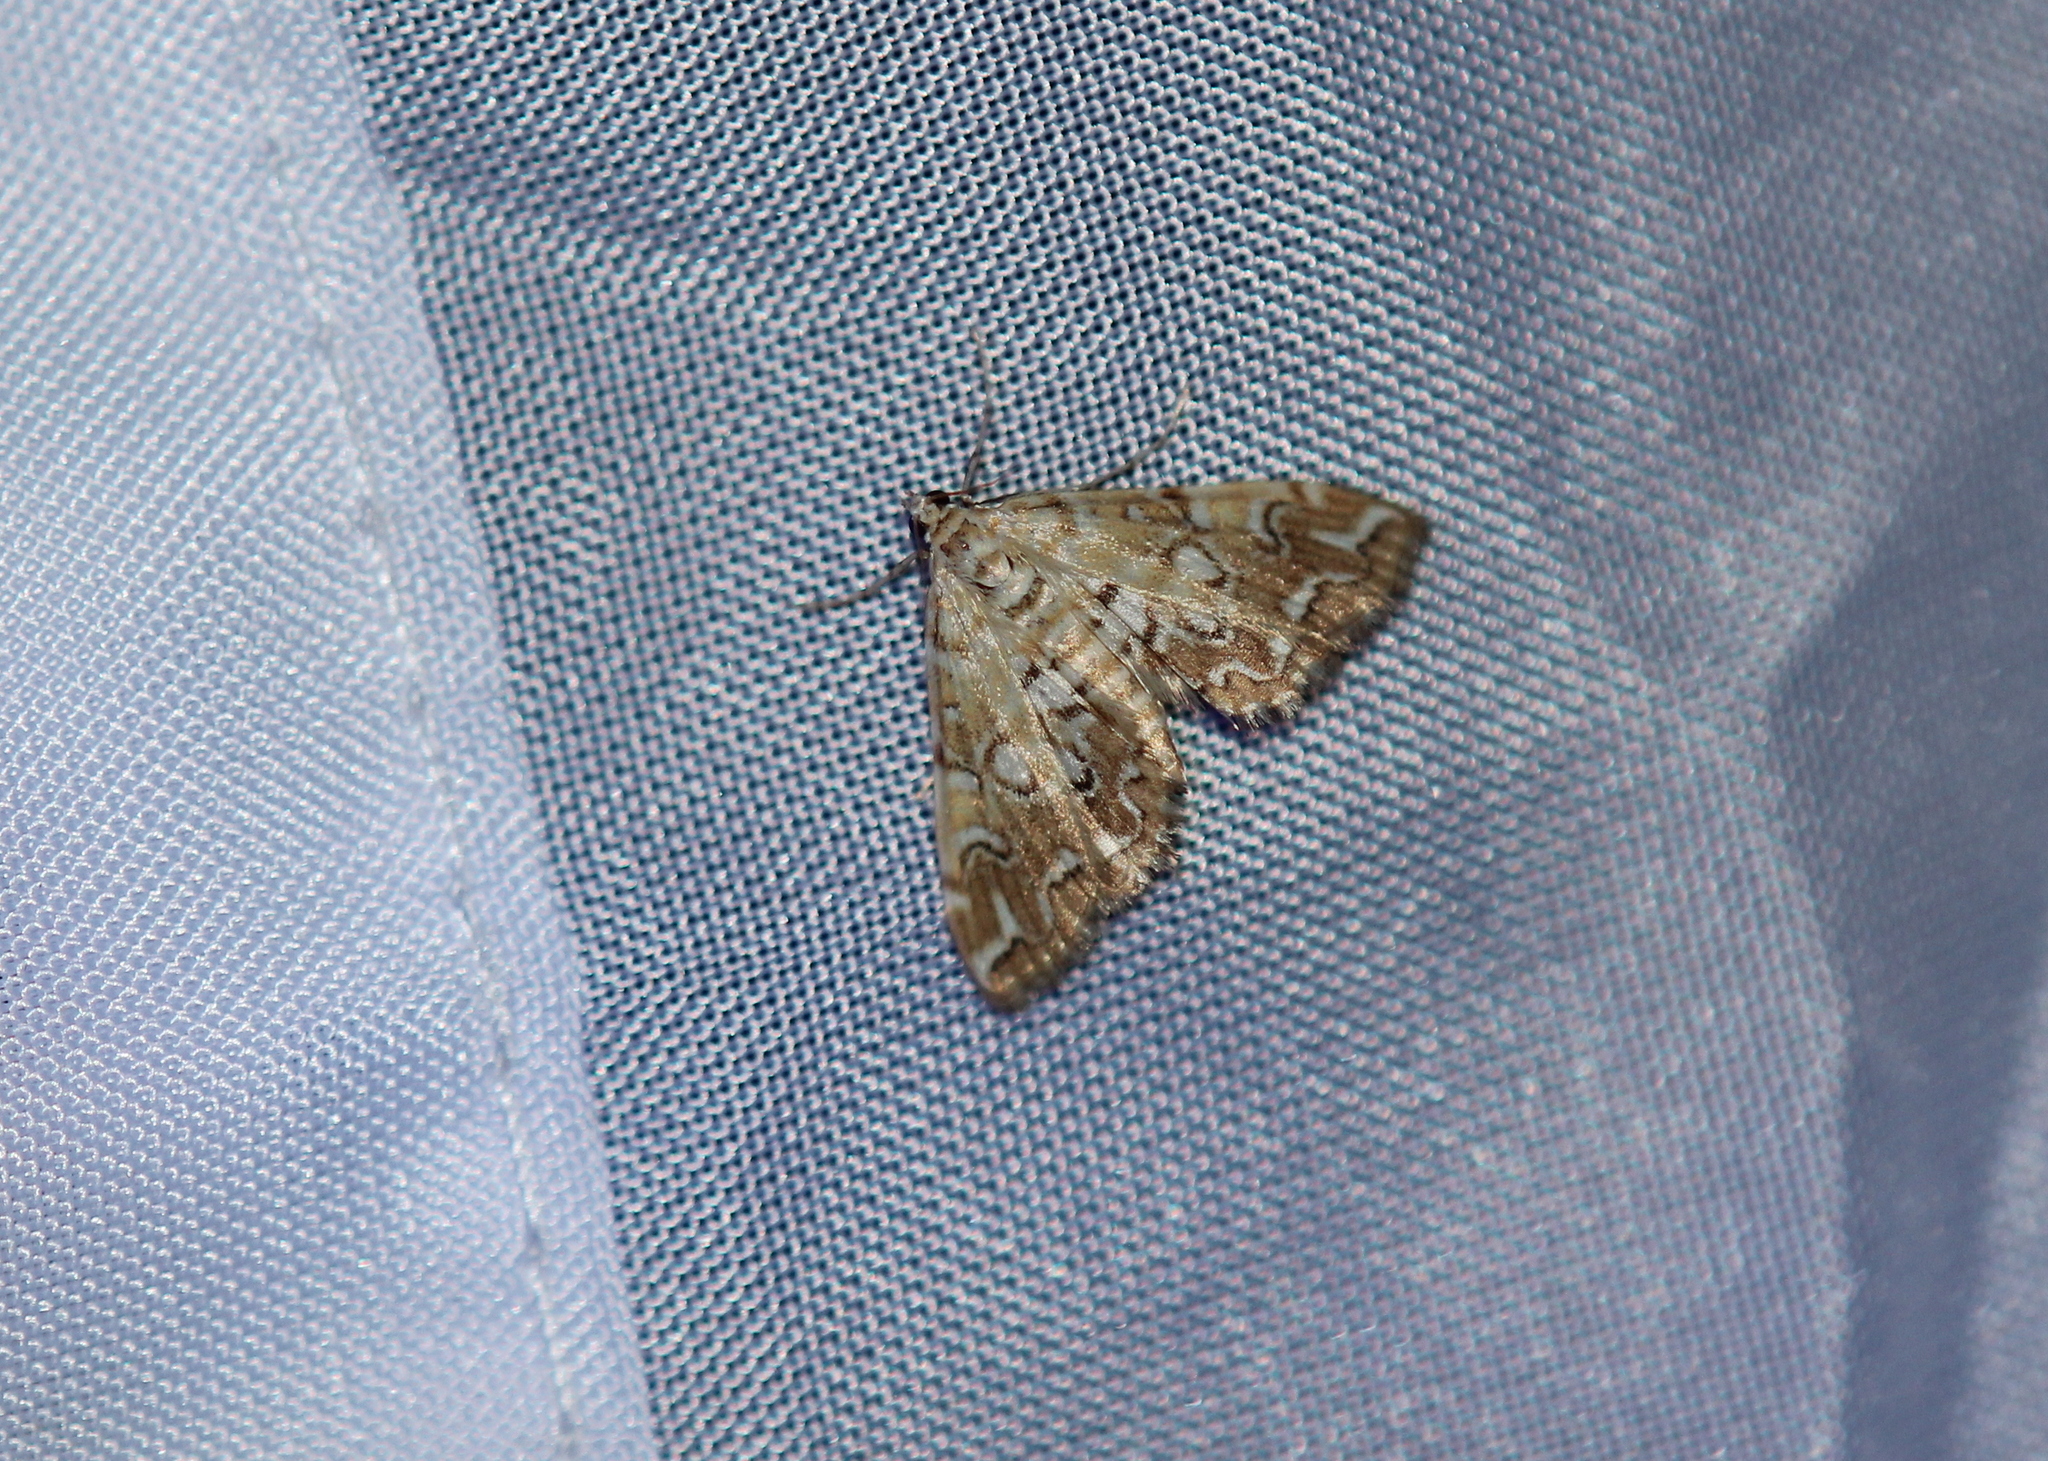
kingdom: Animalia
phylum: Arthropoda
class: Insecta
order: Lepidoptera
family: Crambidae
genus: Elophila
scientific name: Elophila icciusalis
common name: Pondside pyralid moth
